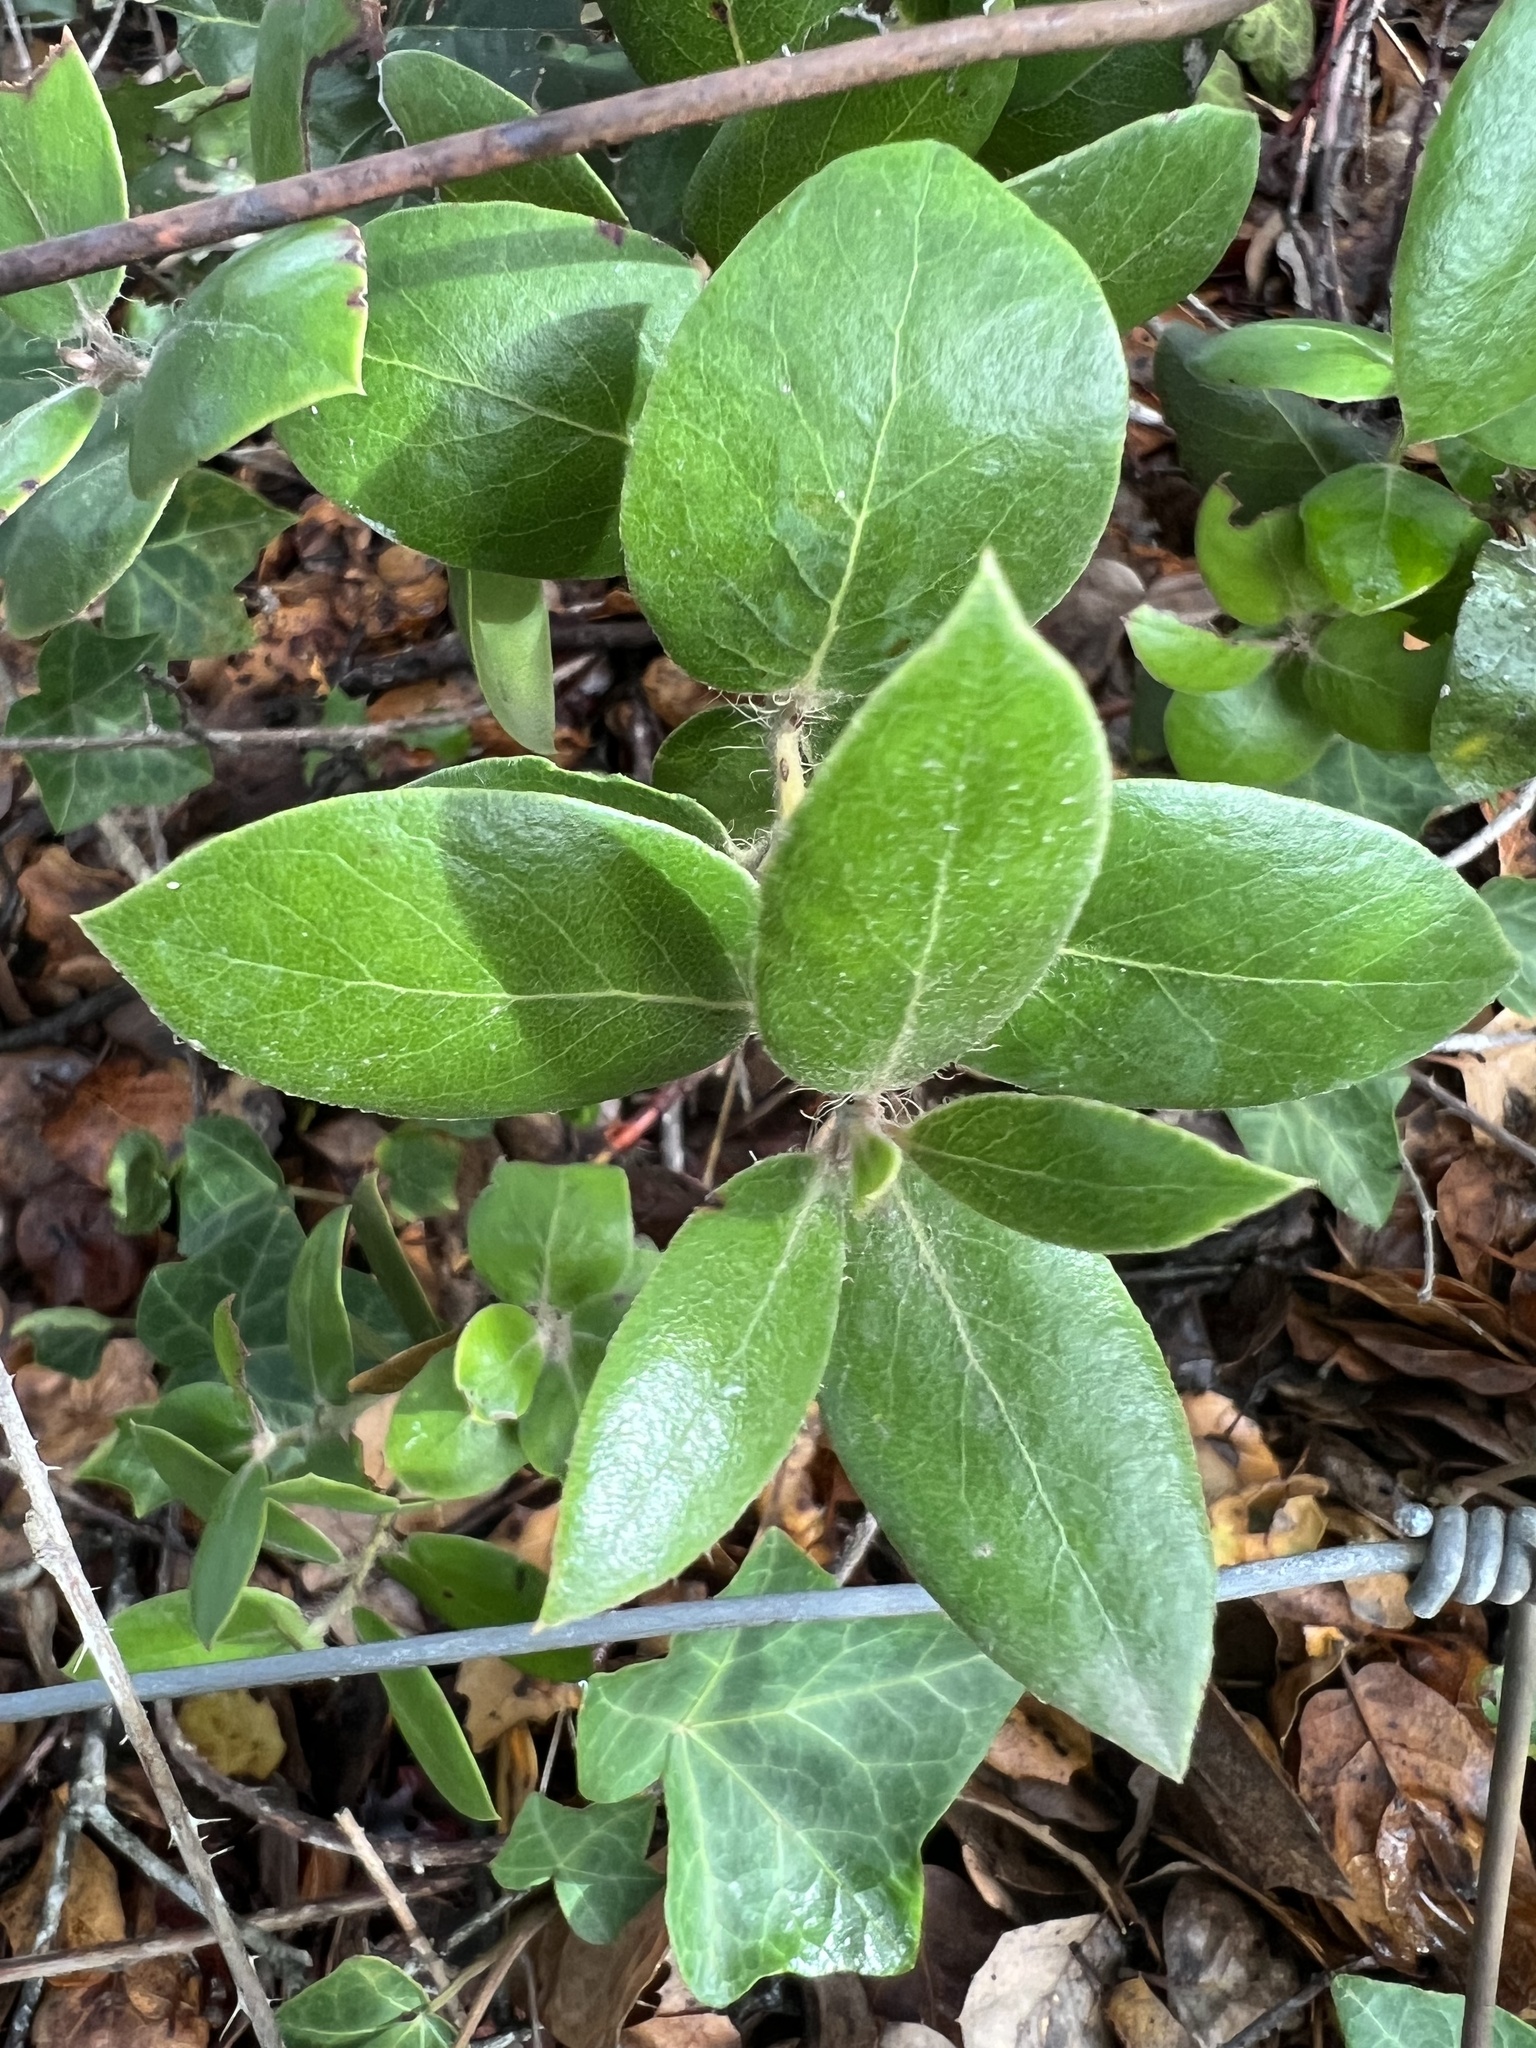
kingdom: Plantae
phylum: Tracheophyta
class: Magnoliopsida
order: Ericales
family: Ericaceae
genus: Arctostaphylos
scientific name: Arctostaphylos crustacea
